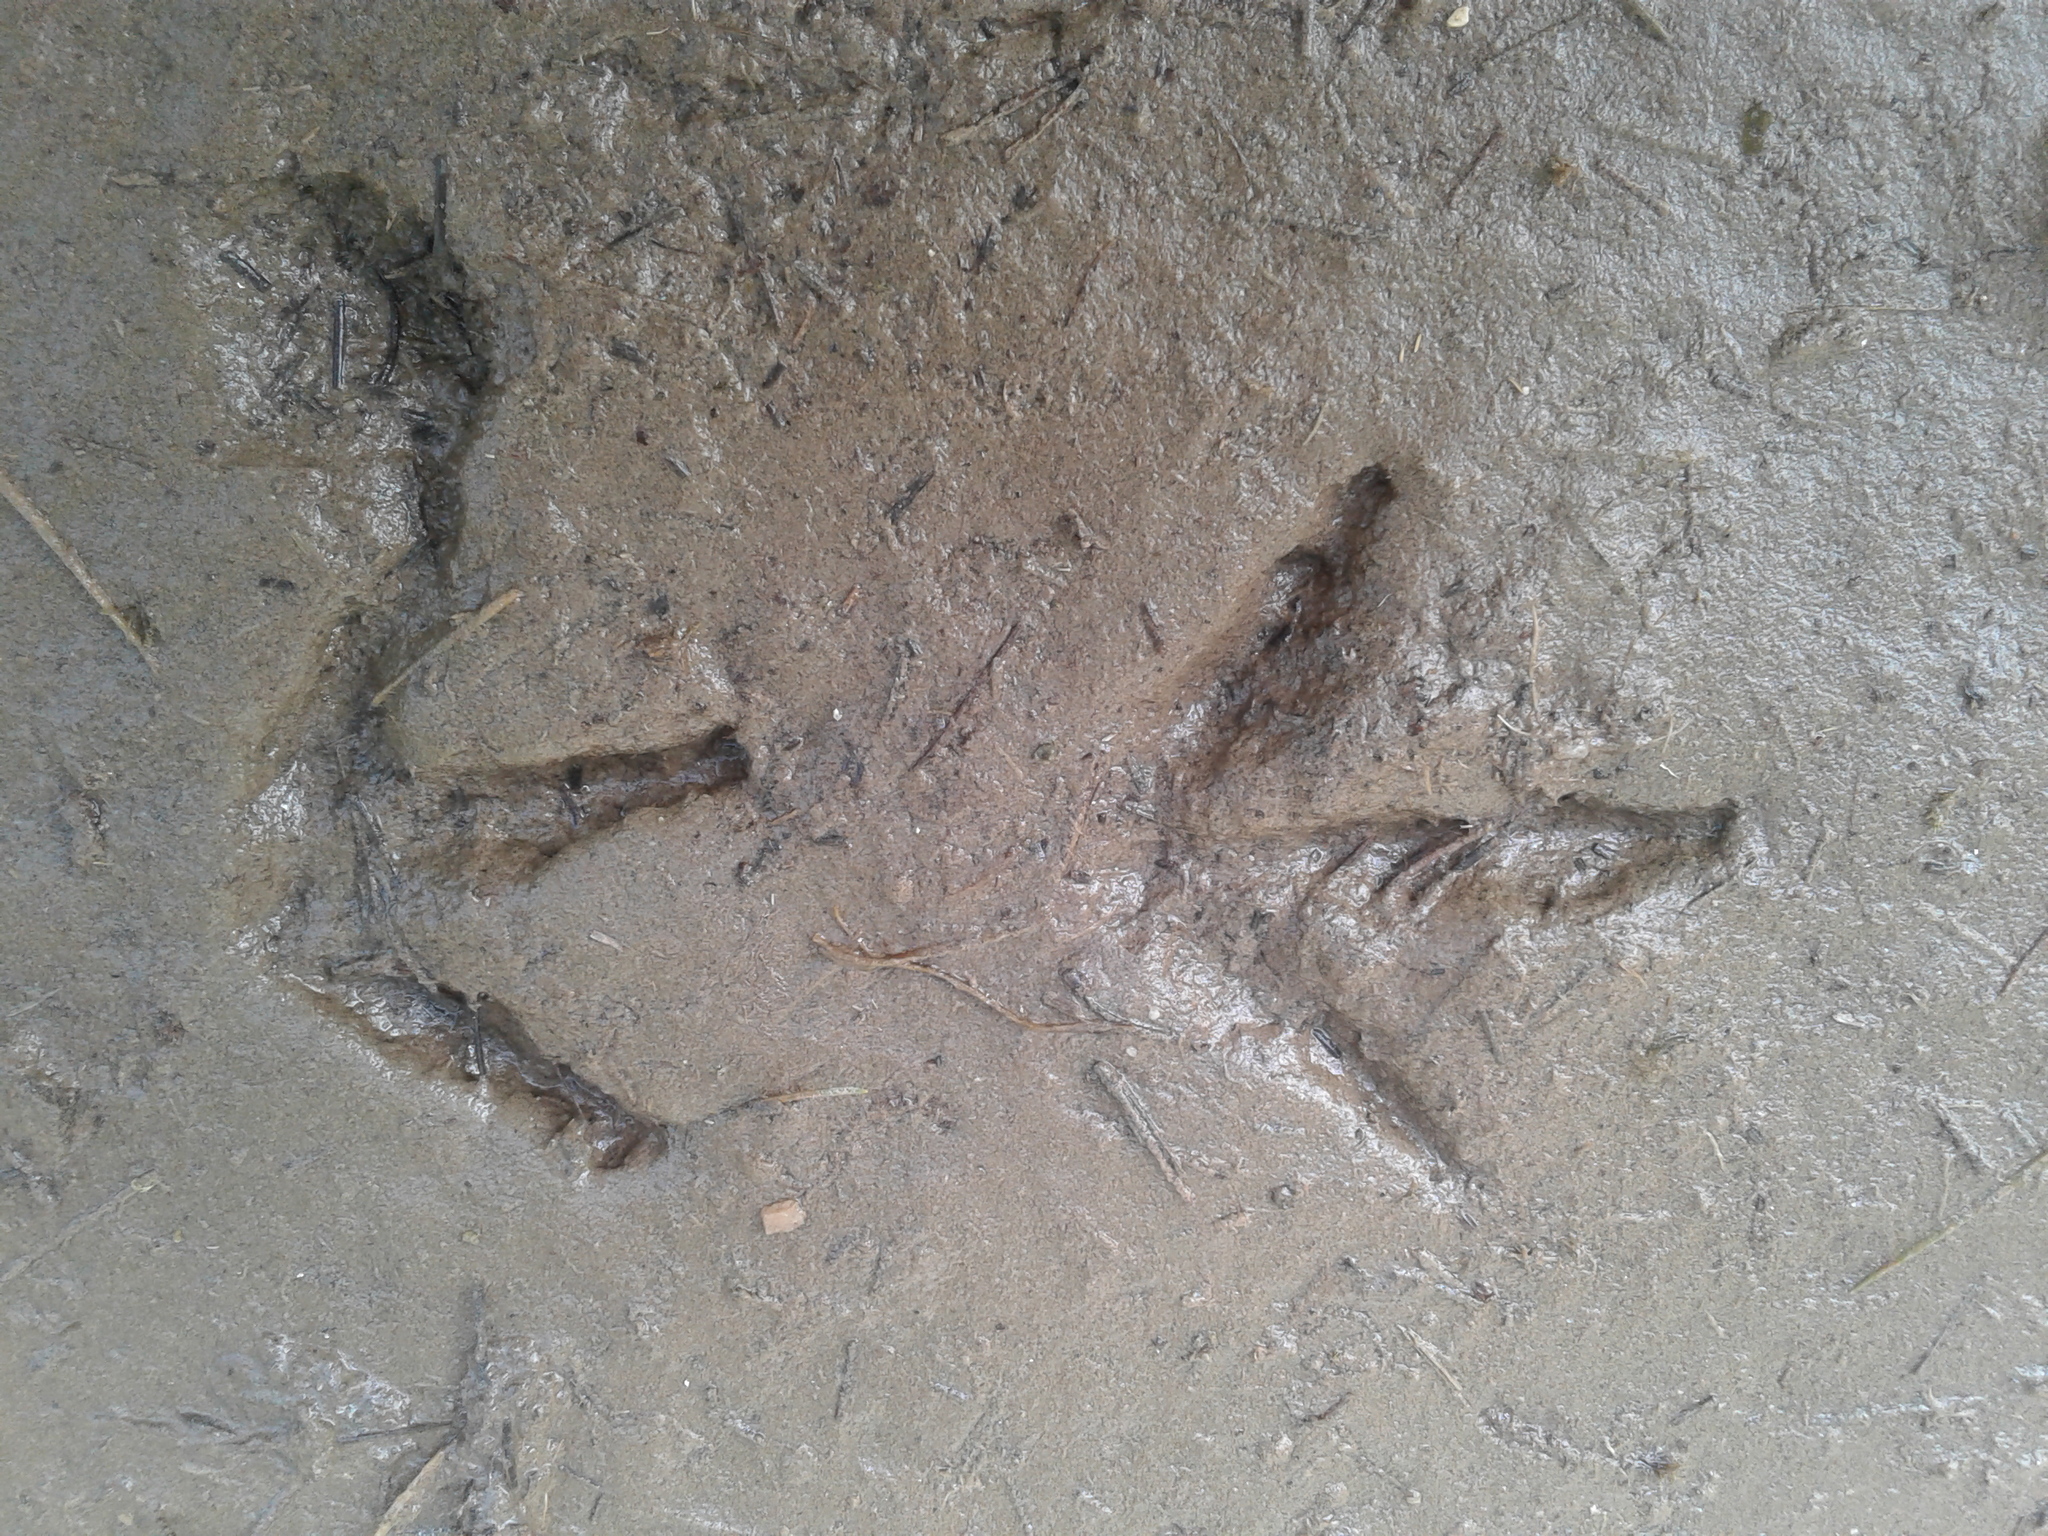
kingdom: Animalia
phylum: Chordata
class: Aves
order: Gruiformes
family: Rallidae
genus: Gallirallus
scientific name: Gallirallus australis
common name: Weka
